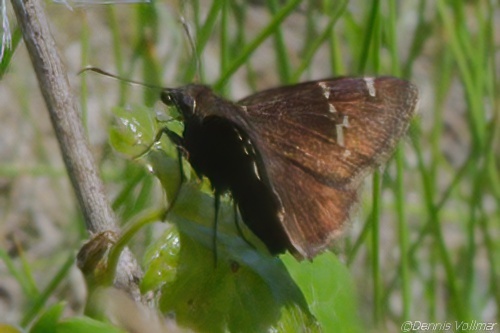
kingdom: Animalia
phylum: Arthropoda
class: Insecta
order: Lepidoptera
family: Hesperiidae
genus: Thorybes
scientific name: Thorybes daunus
